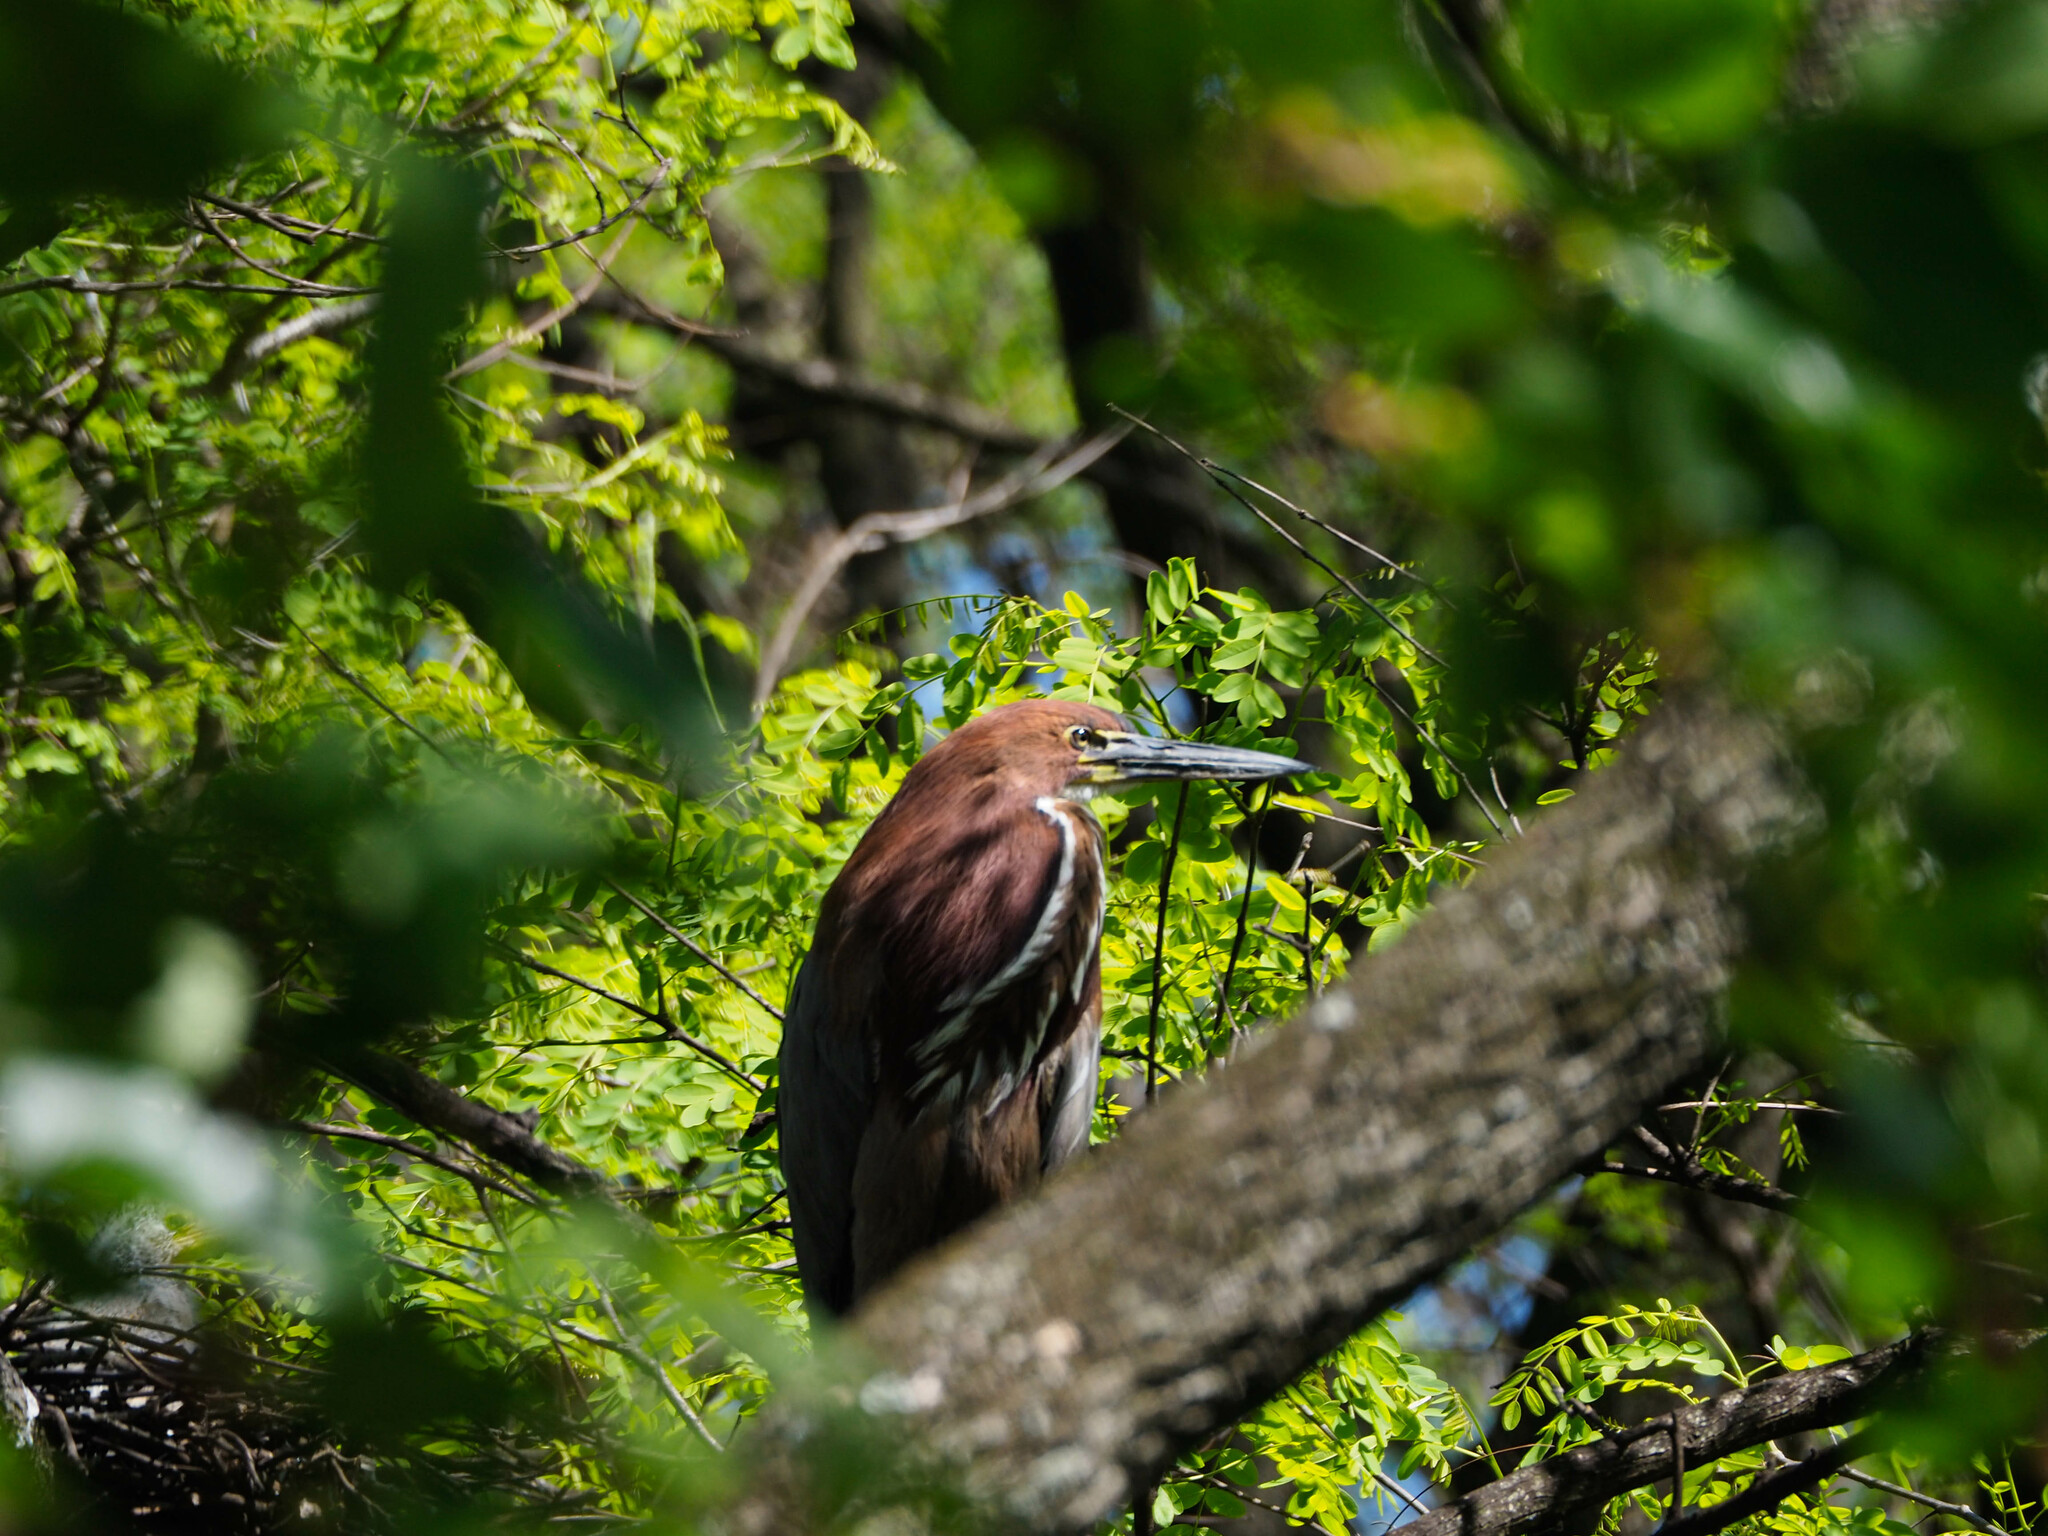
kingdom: Animalia
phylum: Chordata
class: Aves
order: Pelecaniformes
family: Ardeidae
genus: Tigrisoma
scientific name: Tigrisoma lineatum
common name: Rufescent tiger-heron
